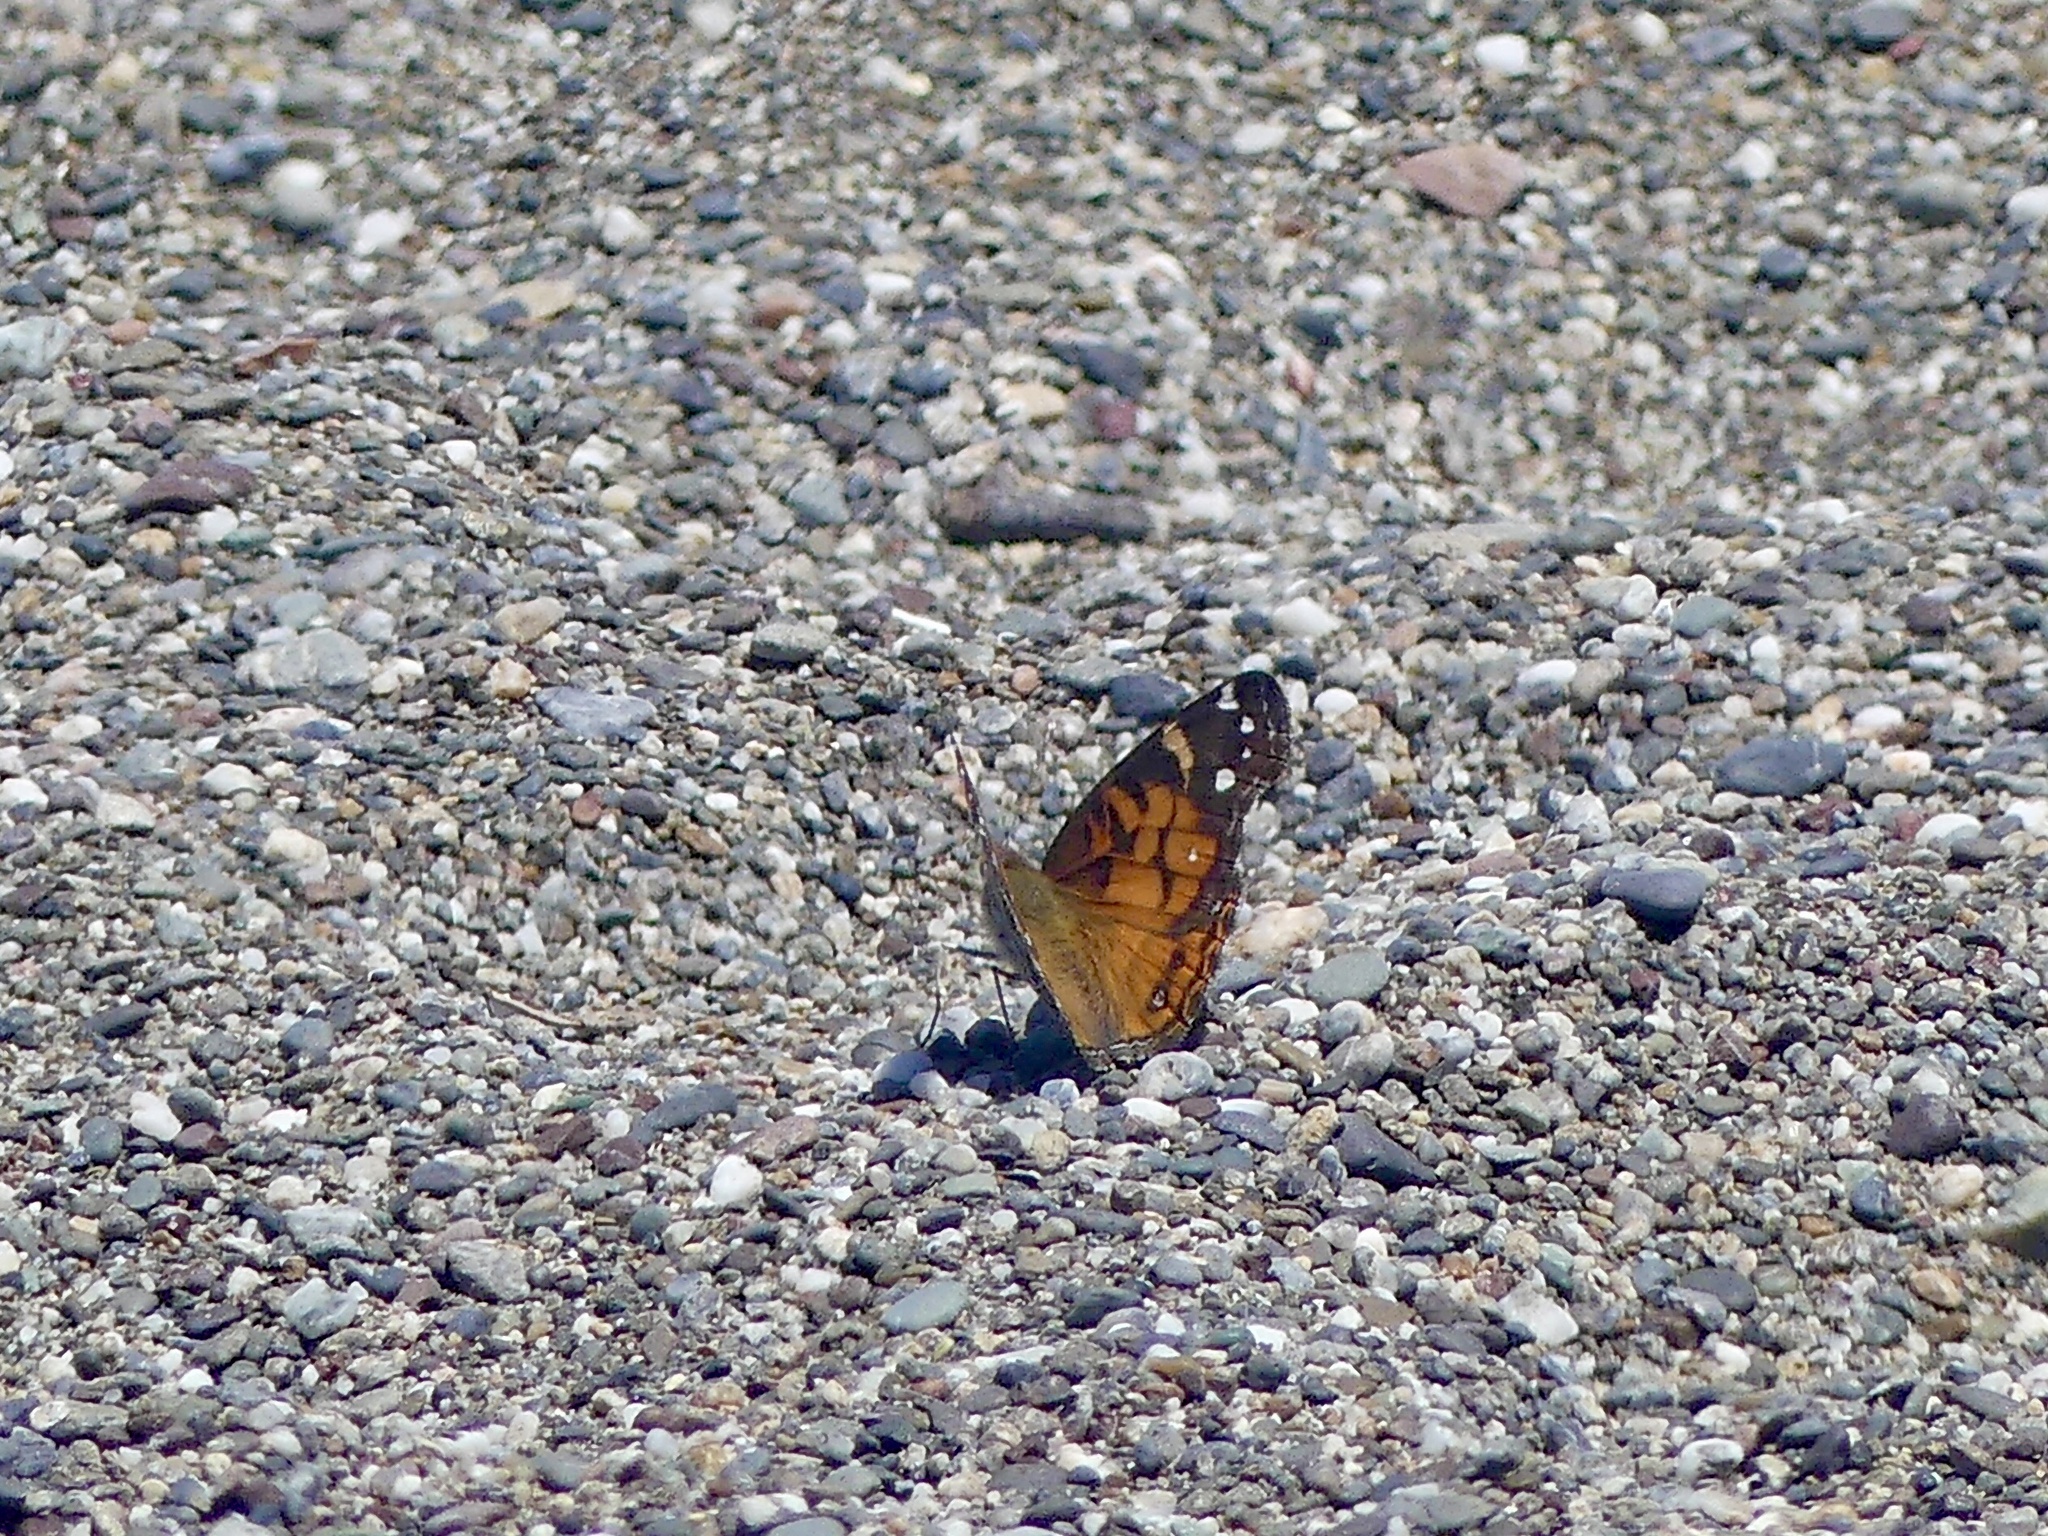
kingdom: Animalia
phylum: Arthropoda
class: Insecta
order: Lepidoptera
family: Nymphalidae
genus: Vanessa
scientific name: Vanessa virginiensis
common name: American lady
